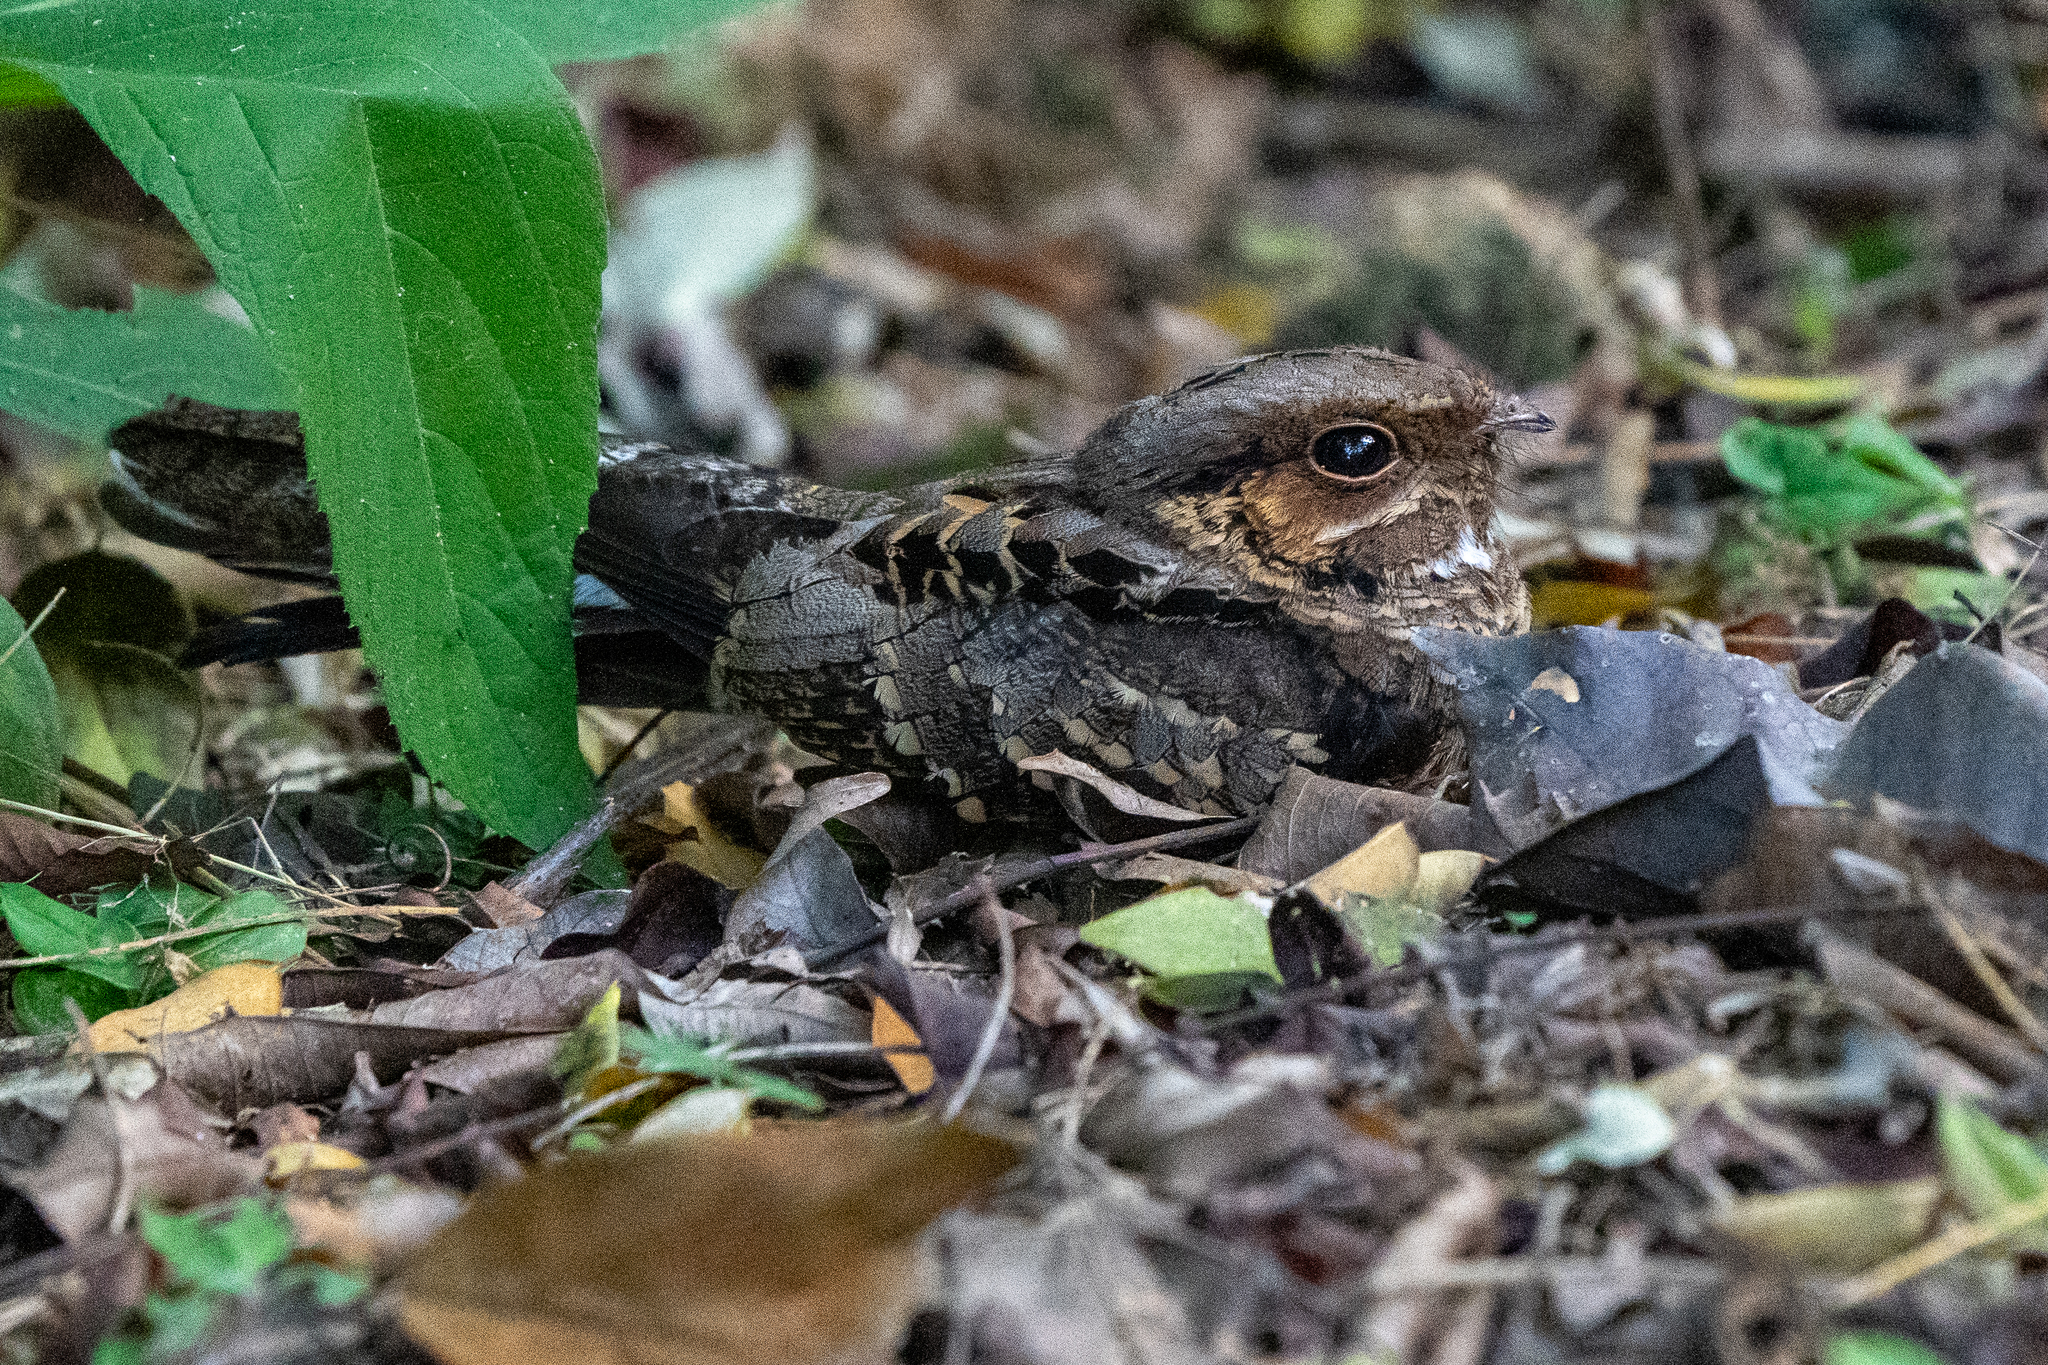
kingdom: Animalia
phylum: Chordata
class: Aves
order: Caprimulgiformes
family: Caprimulgidae
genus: Nyctidromus
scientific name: Nyctidromus albicollis
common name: Pauraque
